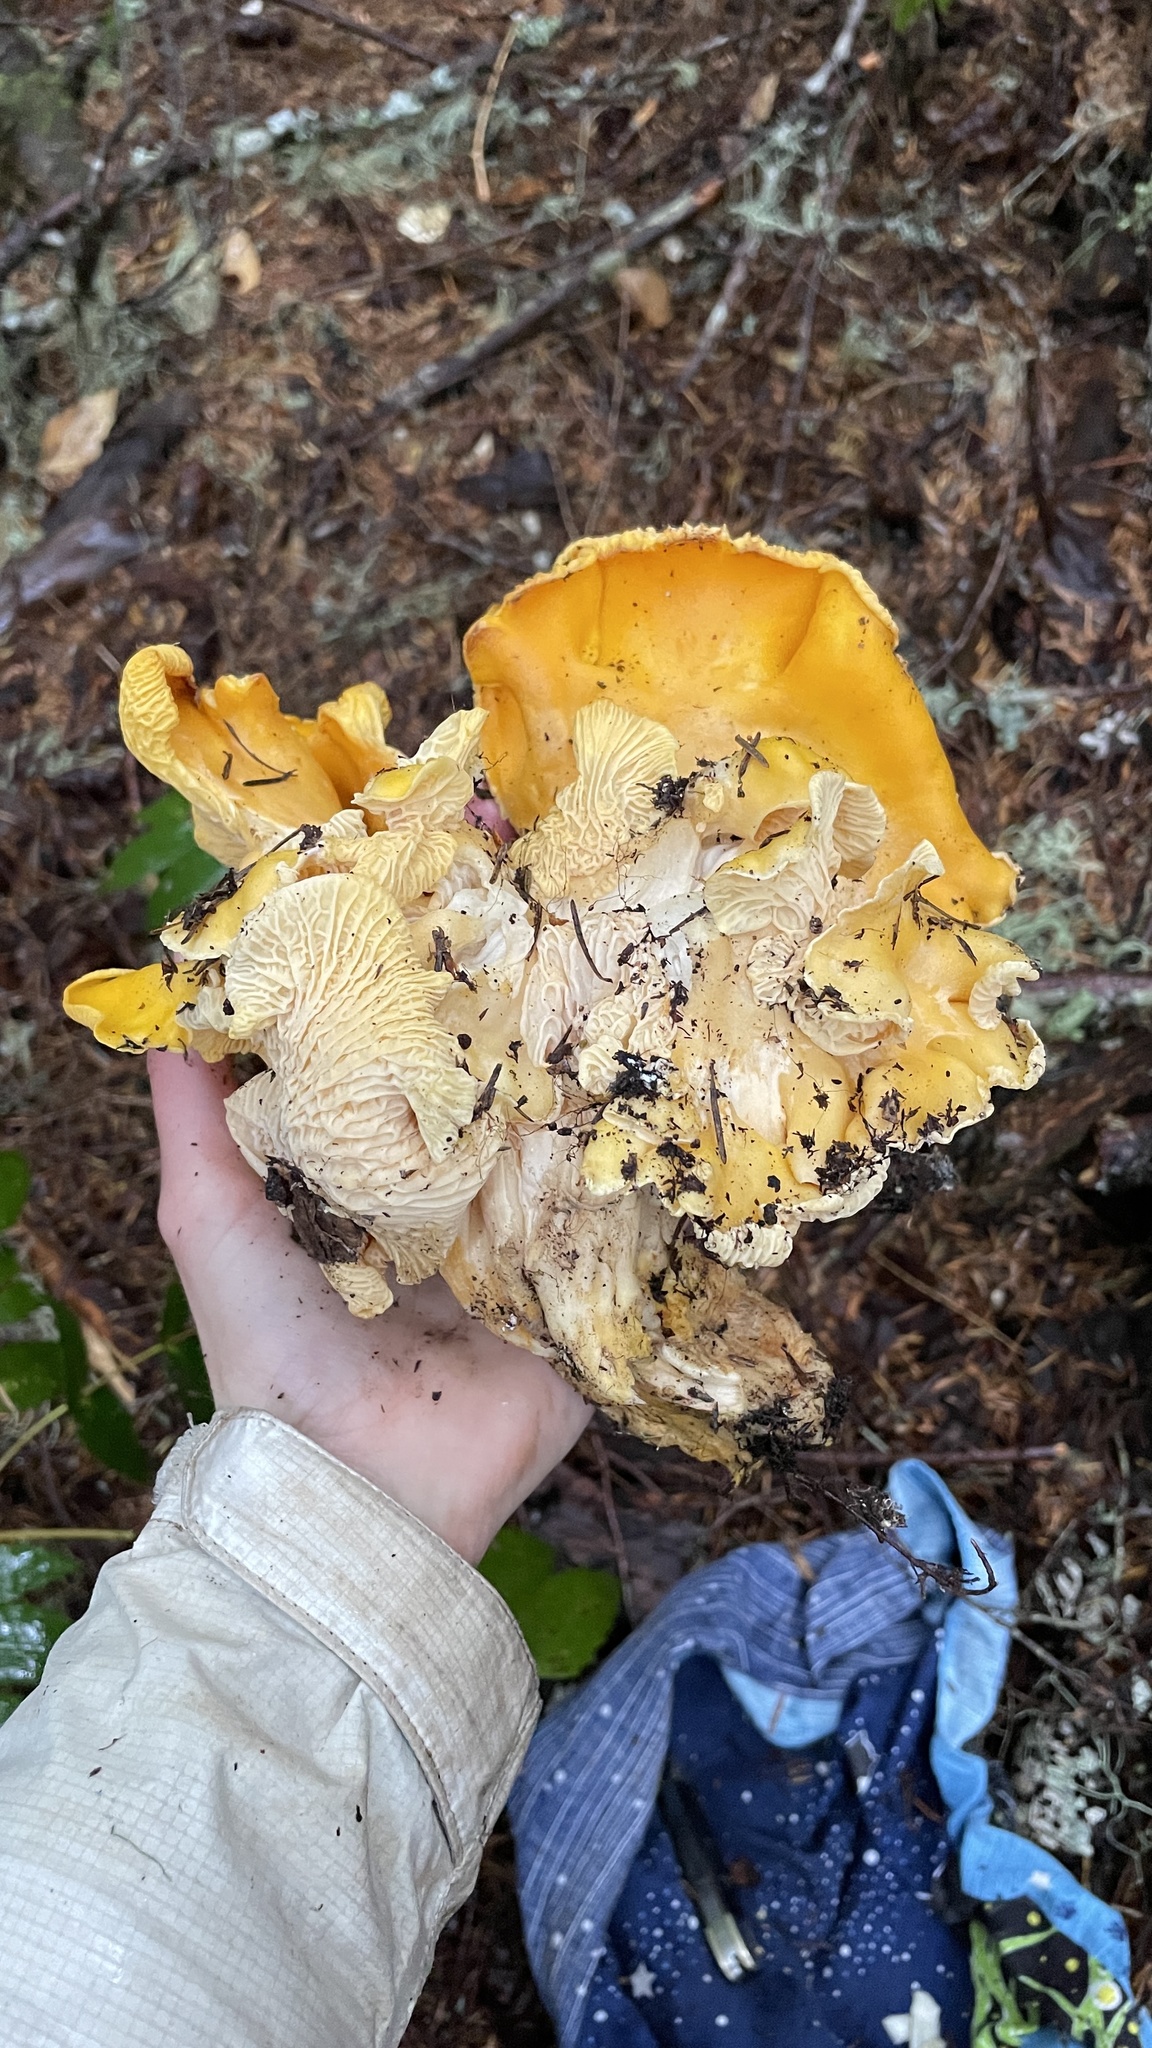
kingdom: Fungi
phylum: Basidiomycota
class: Agaricomycetes
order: Cantharellales
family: Hydnaceae
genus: Cantharellus
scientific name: Cantharellus cascadensis
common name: Cascade chanterelle
